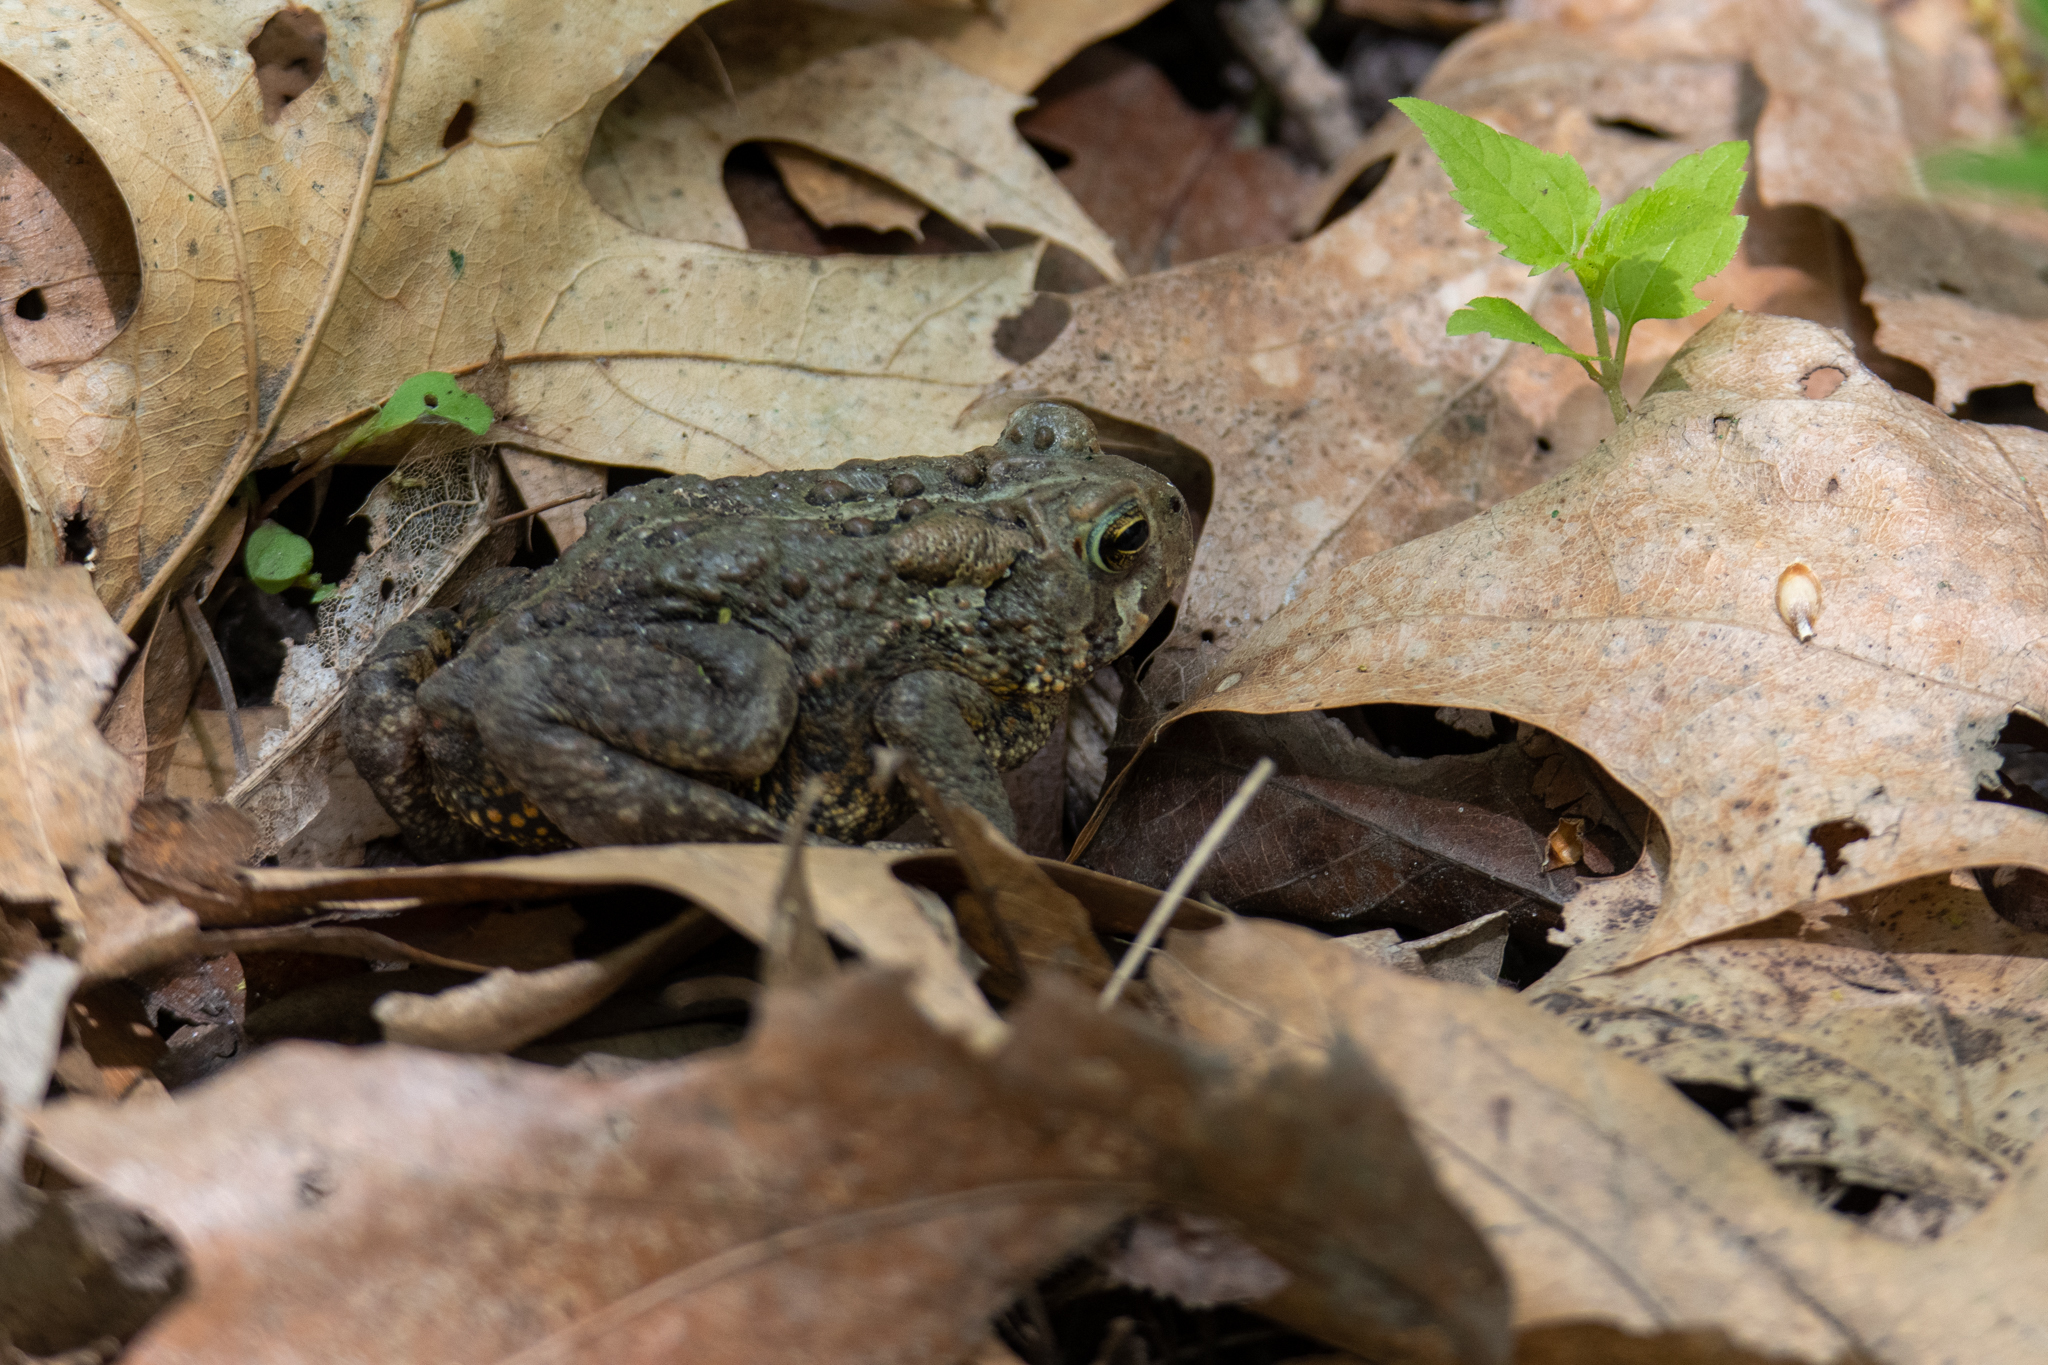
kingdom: Animalia
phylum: Chordata
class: Amphibia
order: Anura
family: Bufonidae
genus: Anaxyrus
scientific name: Anaxyrus americanus
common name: American toad
